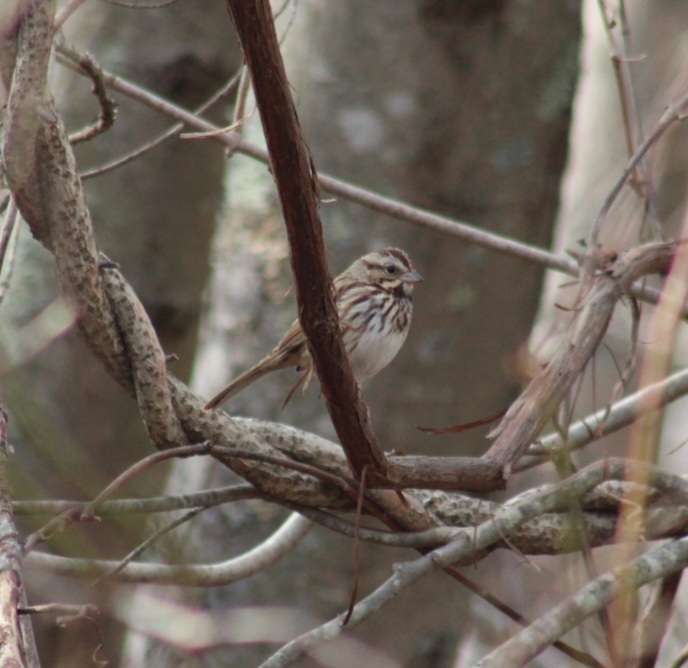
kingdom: Animalia
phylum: Chordata
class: Aves
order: Passeriformes
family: Passerellidae
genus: Melospiza
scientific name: Melospiza melodia
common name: Song sparrow
